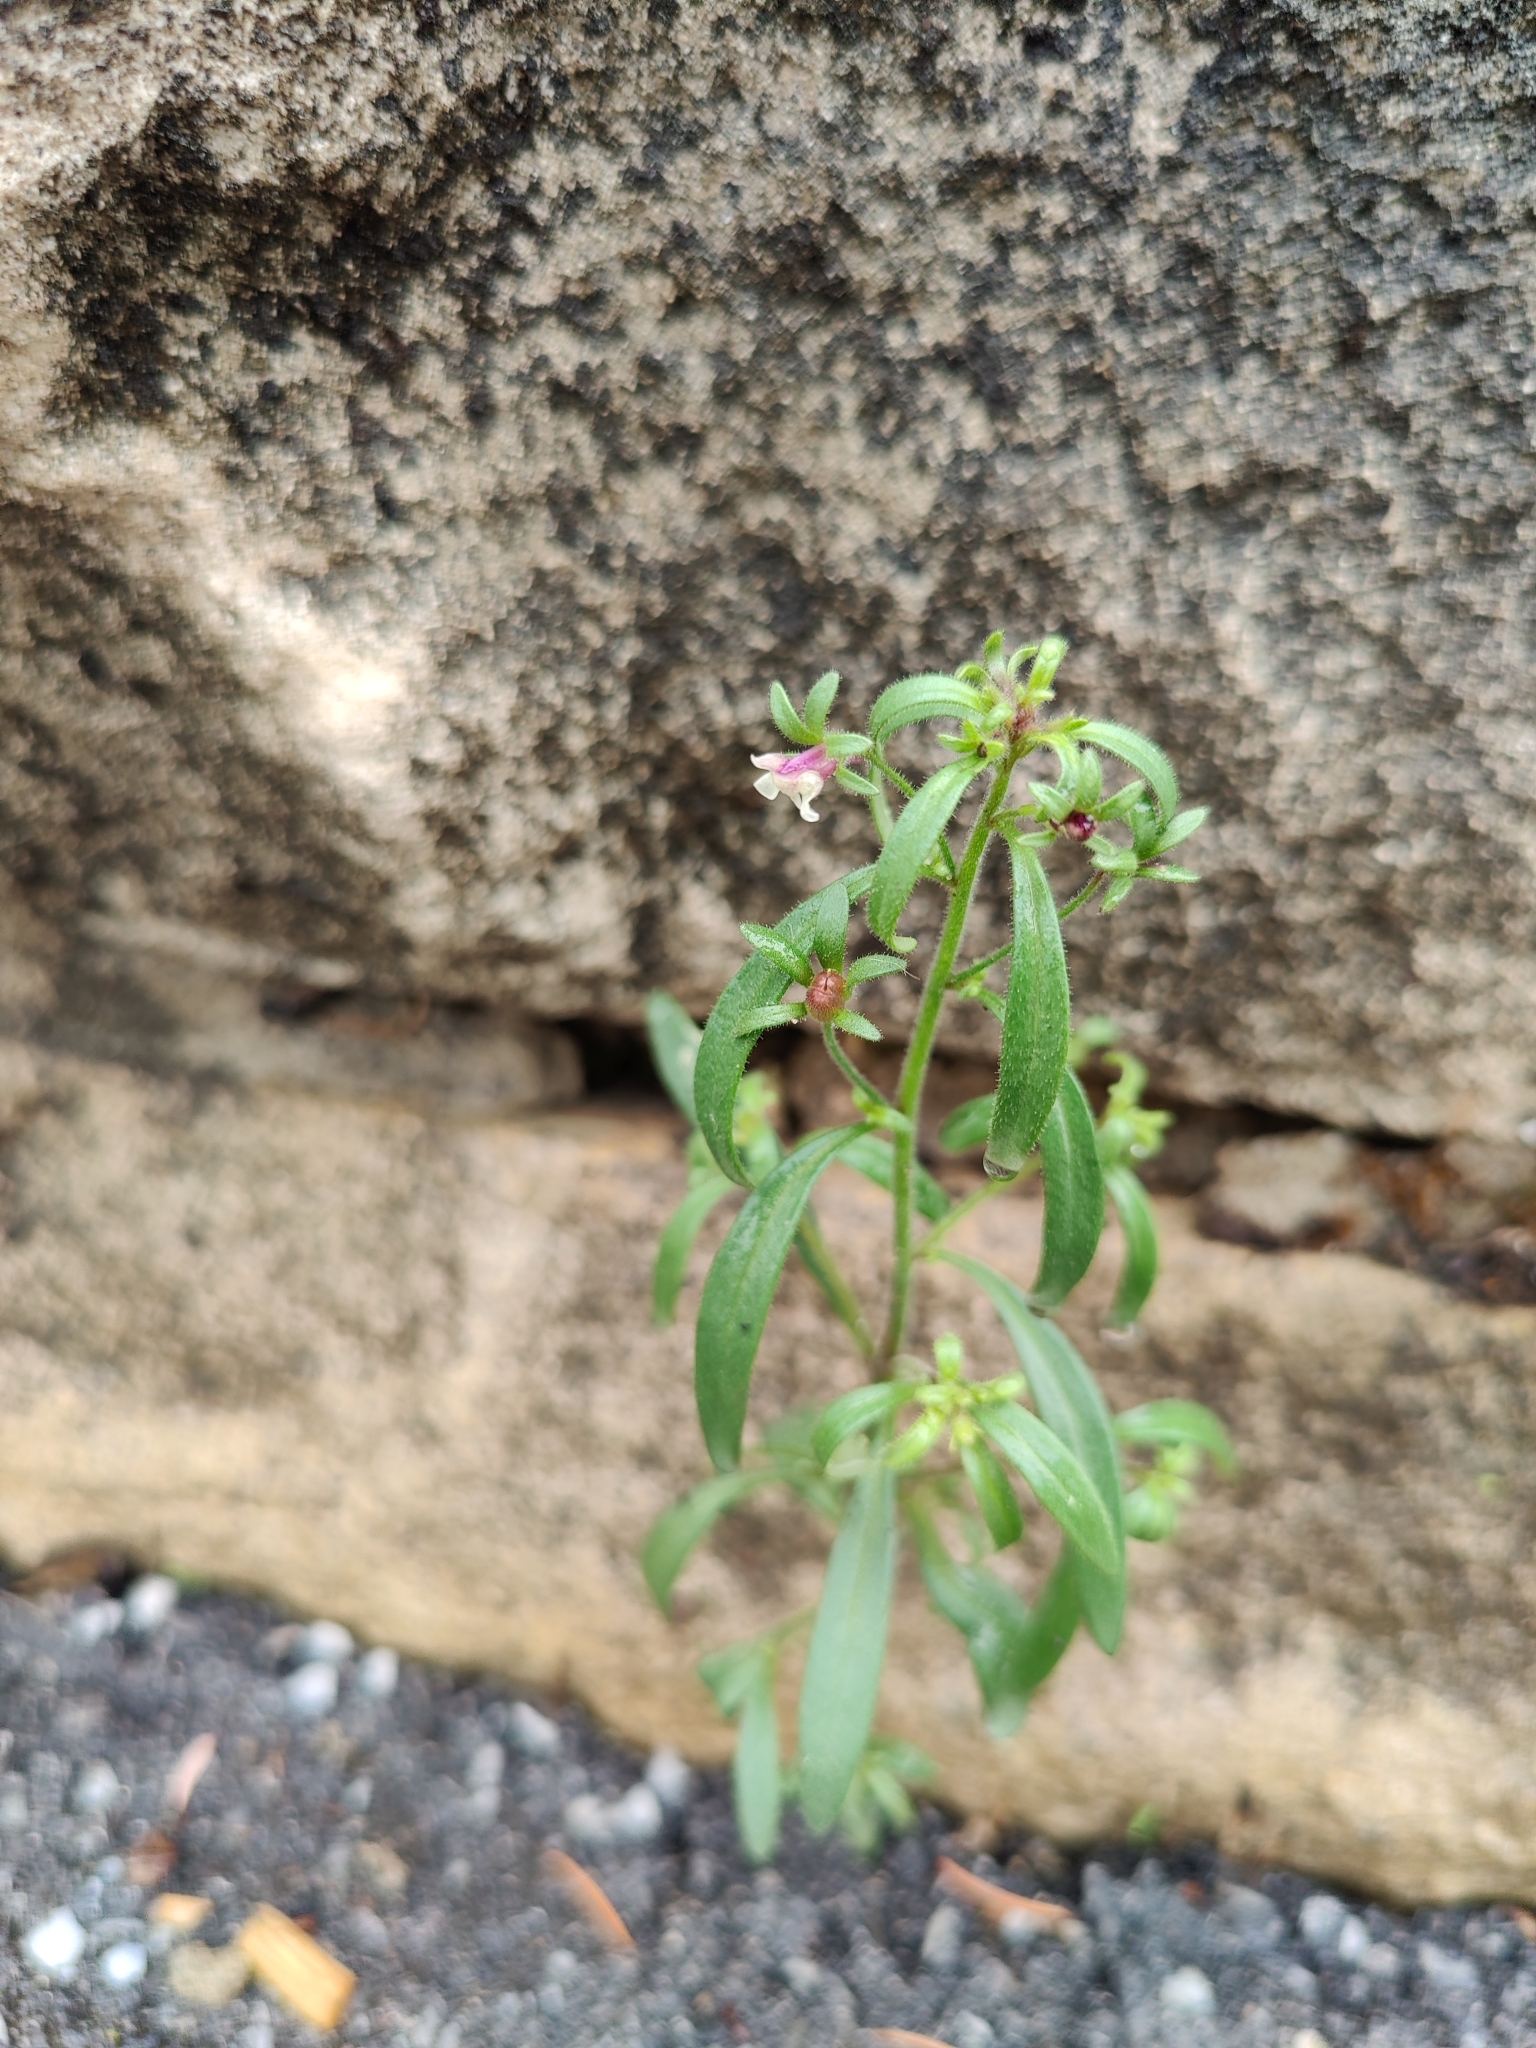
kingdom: Plantae
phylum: Tracheophyta
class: Magnoliopsida
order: Lamiales
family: Plantaginaceae
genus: Chaenorhinum
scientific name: Chaenorhinum minus
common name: Dwarf snapdragon
